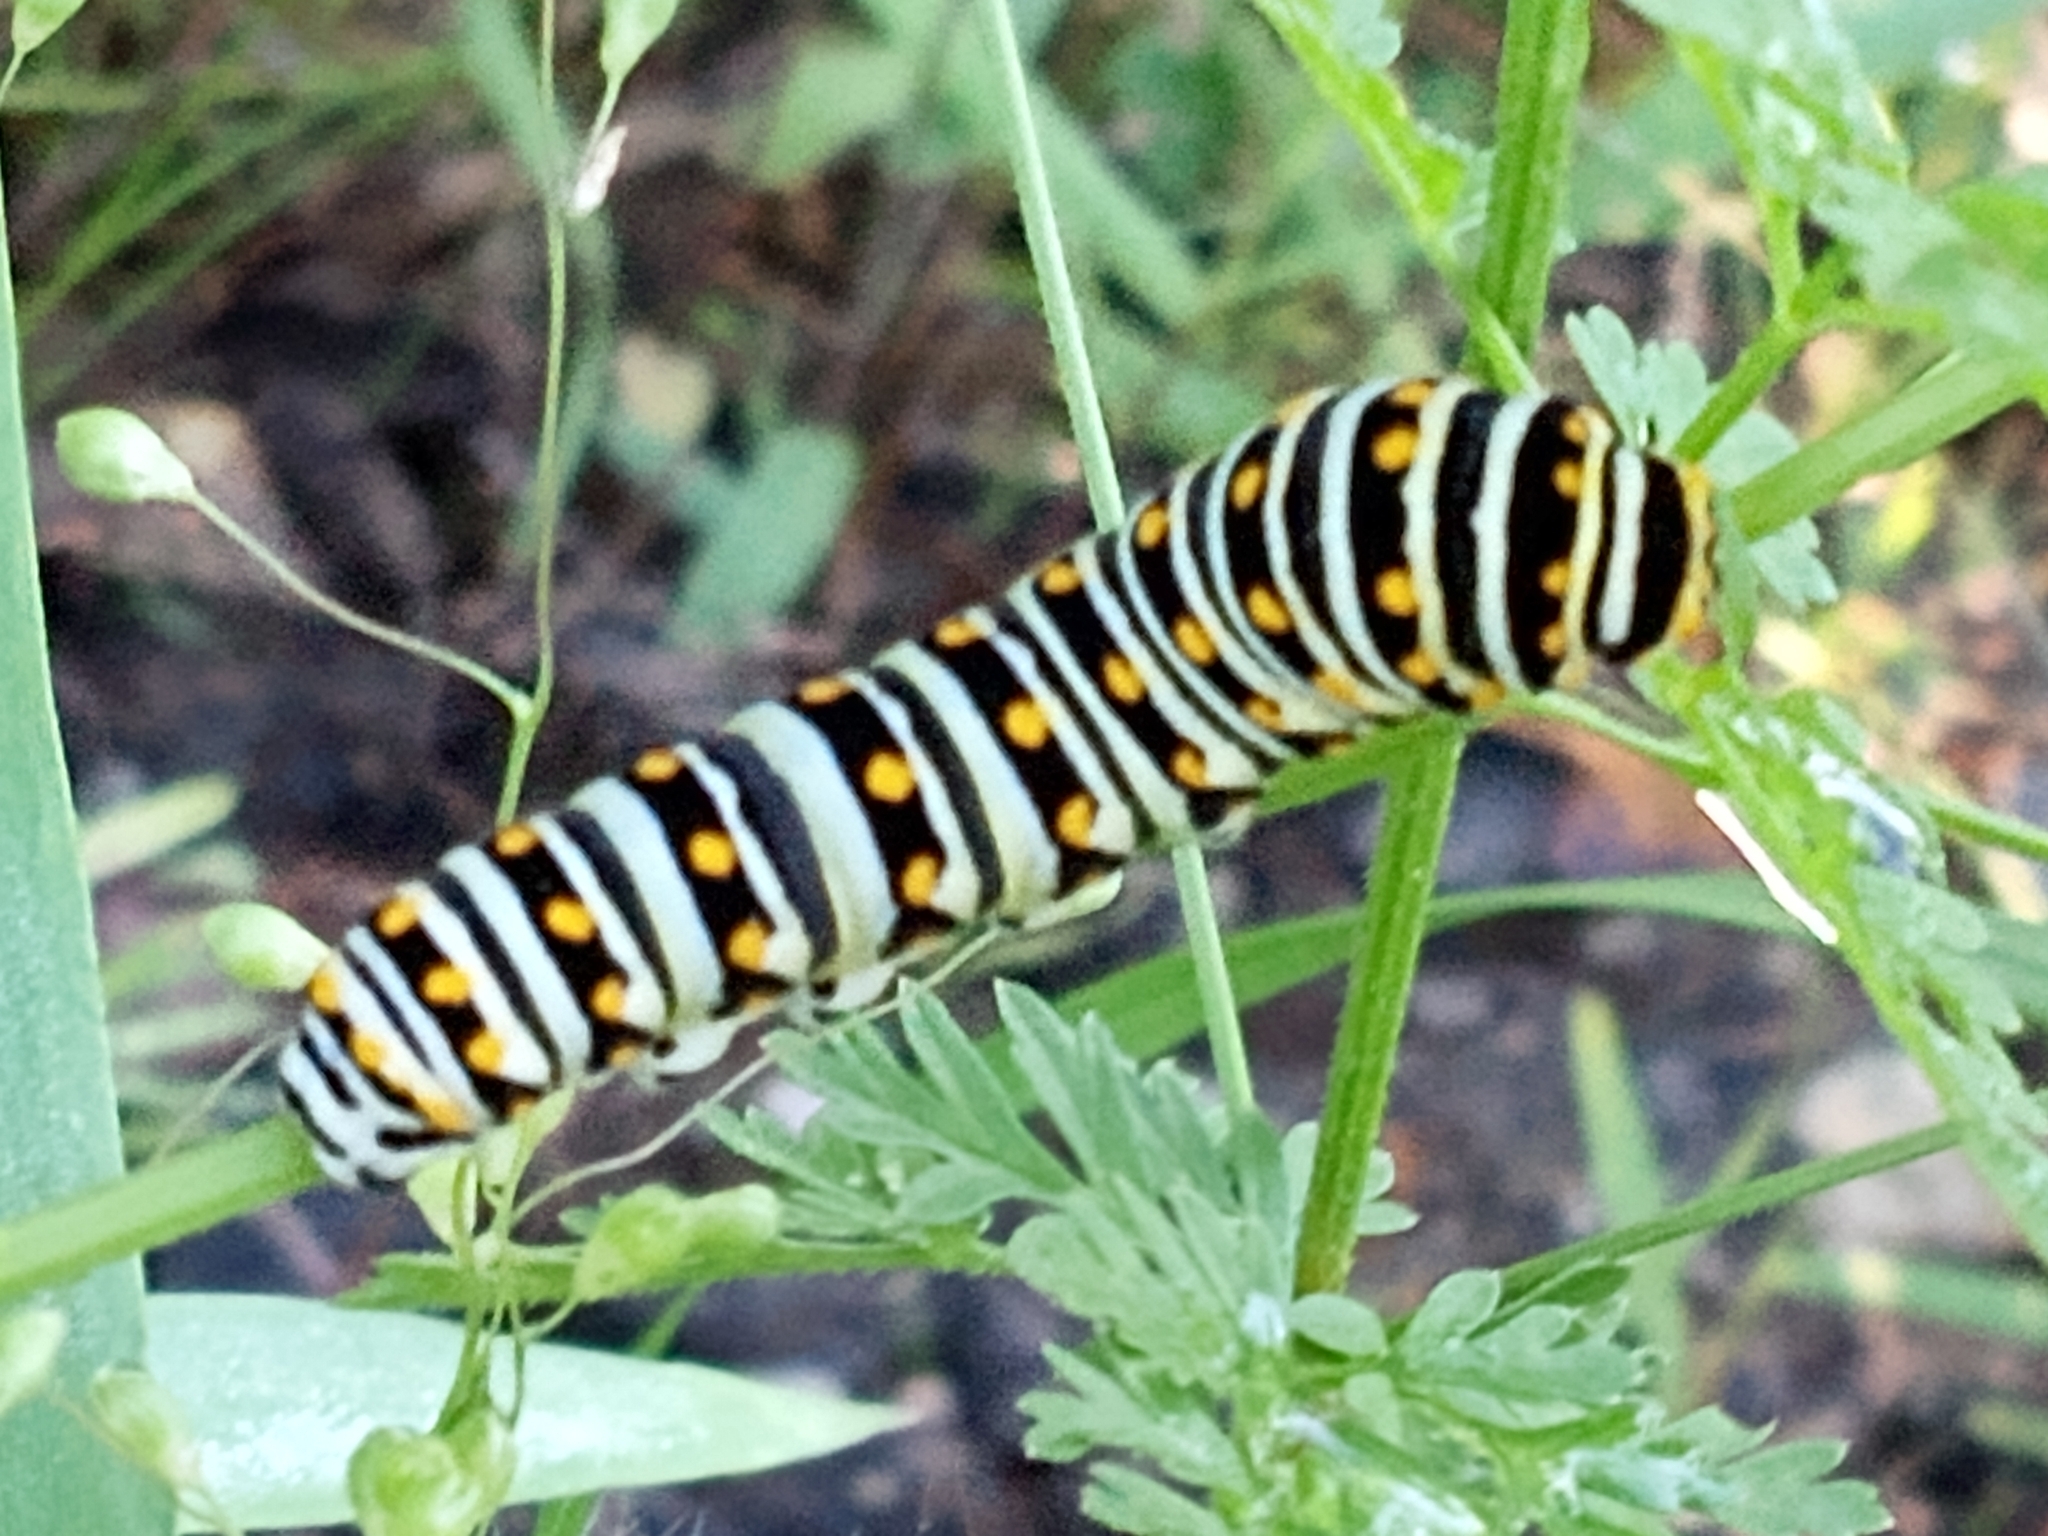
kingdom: Animalia
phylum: Arthropoda
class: Insecta
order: Lepidoptera
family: Papilionidae
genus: Papilio
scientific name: Papilio polyxenes
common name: Black swallowtail
